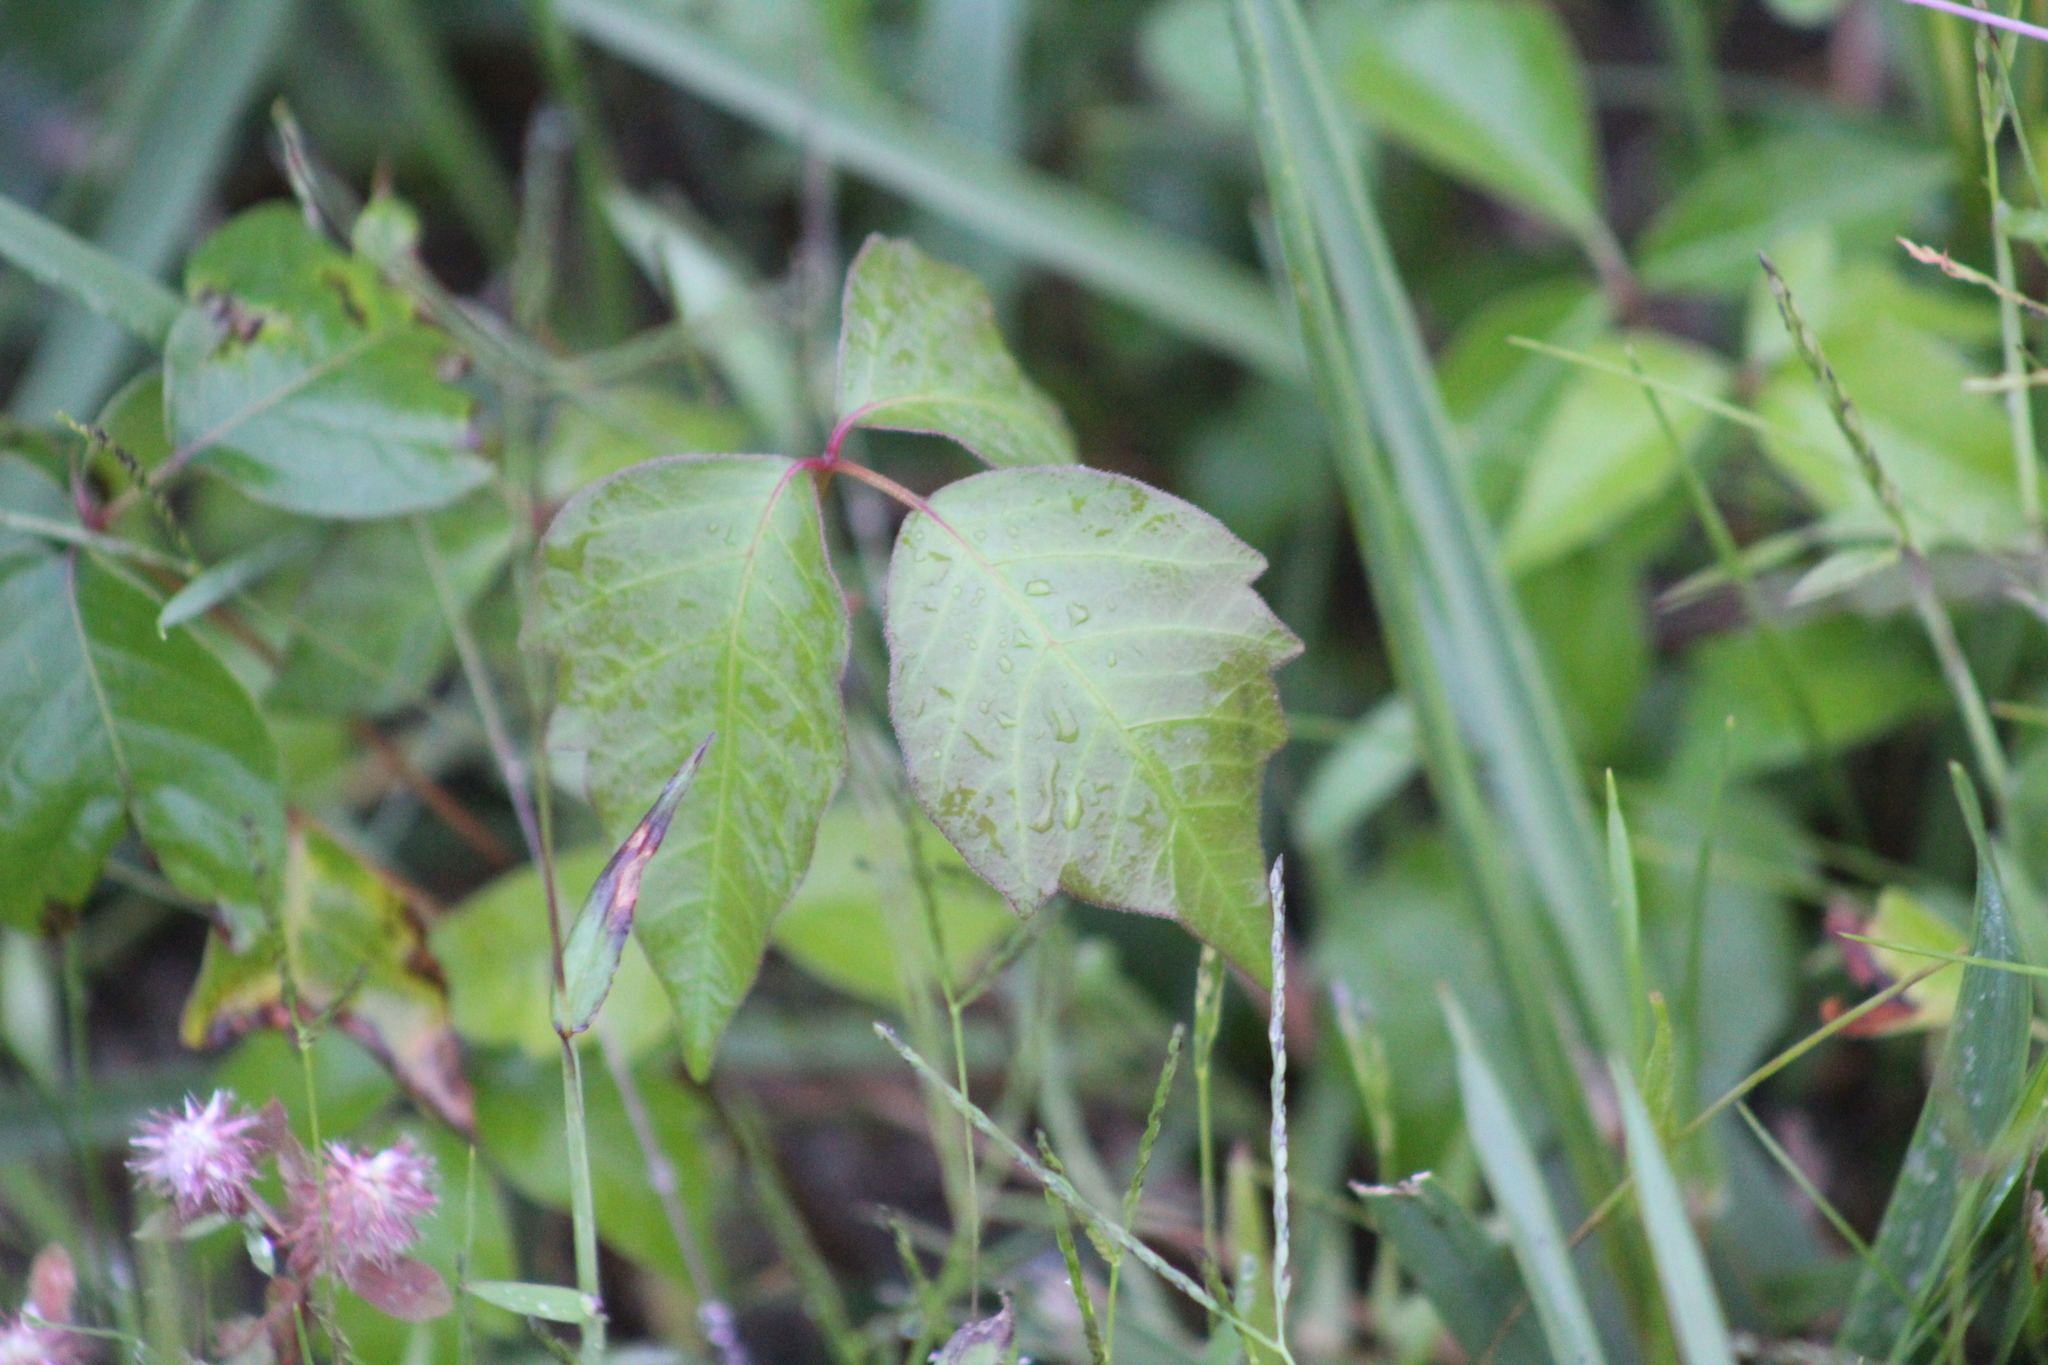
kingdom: Plantae
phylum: Tracheophyta
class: Magnoliopsida
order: Sapindales
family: Anacardiaceae
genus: Toxicodendron
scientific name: Toxicodendron radicans
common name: Poison ivy
